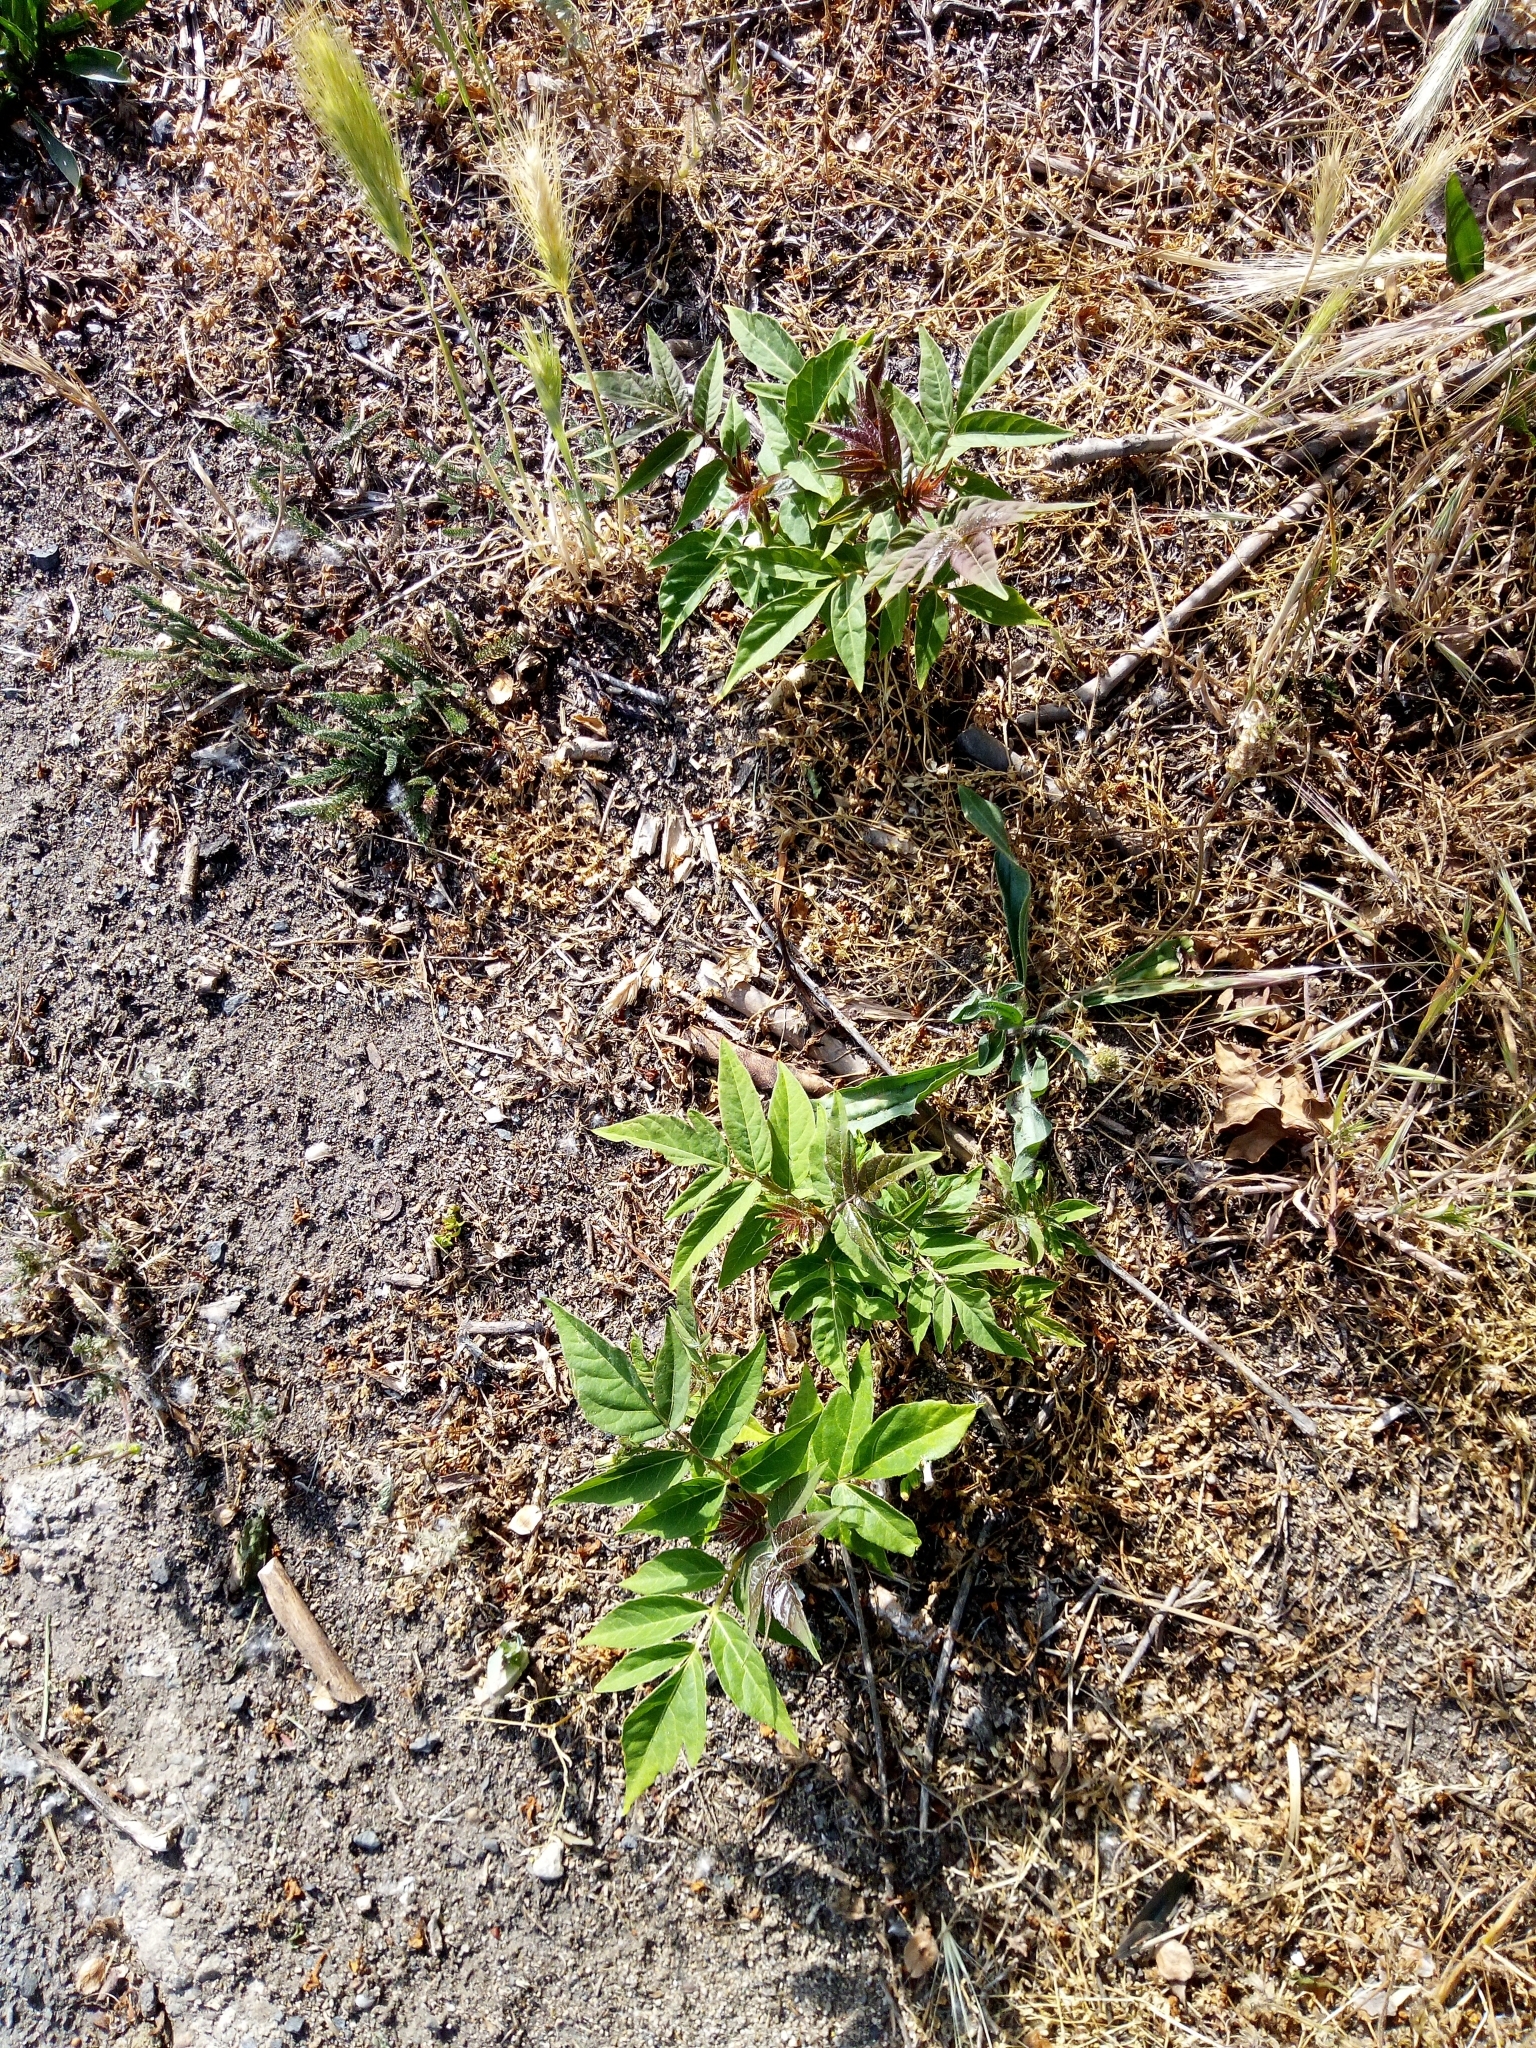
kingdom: Plantae
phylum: Tracheophyta
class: Magnoliopsida
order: Sapindales
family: Simaroubaceae
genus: Ailanthus
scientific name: Ailanthus altissima
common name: Tree-of-heaven
